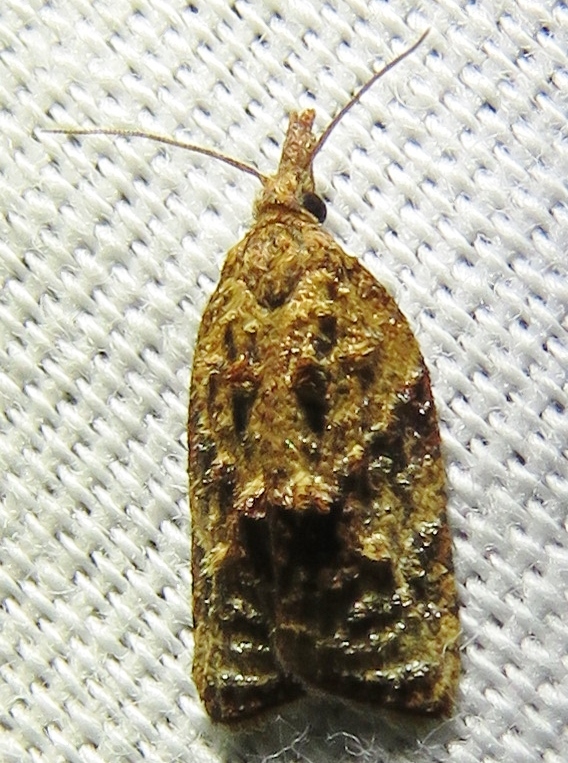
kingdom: Animalia
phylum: Arthropoda
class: Insecta
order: Lepidoptera
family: Tortricidae
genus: Platynota
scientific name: Platynota flavedana
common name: Black-shaded platynota moth
